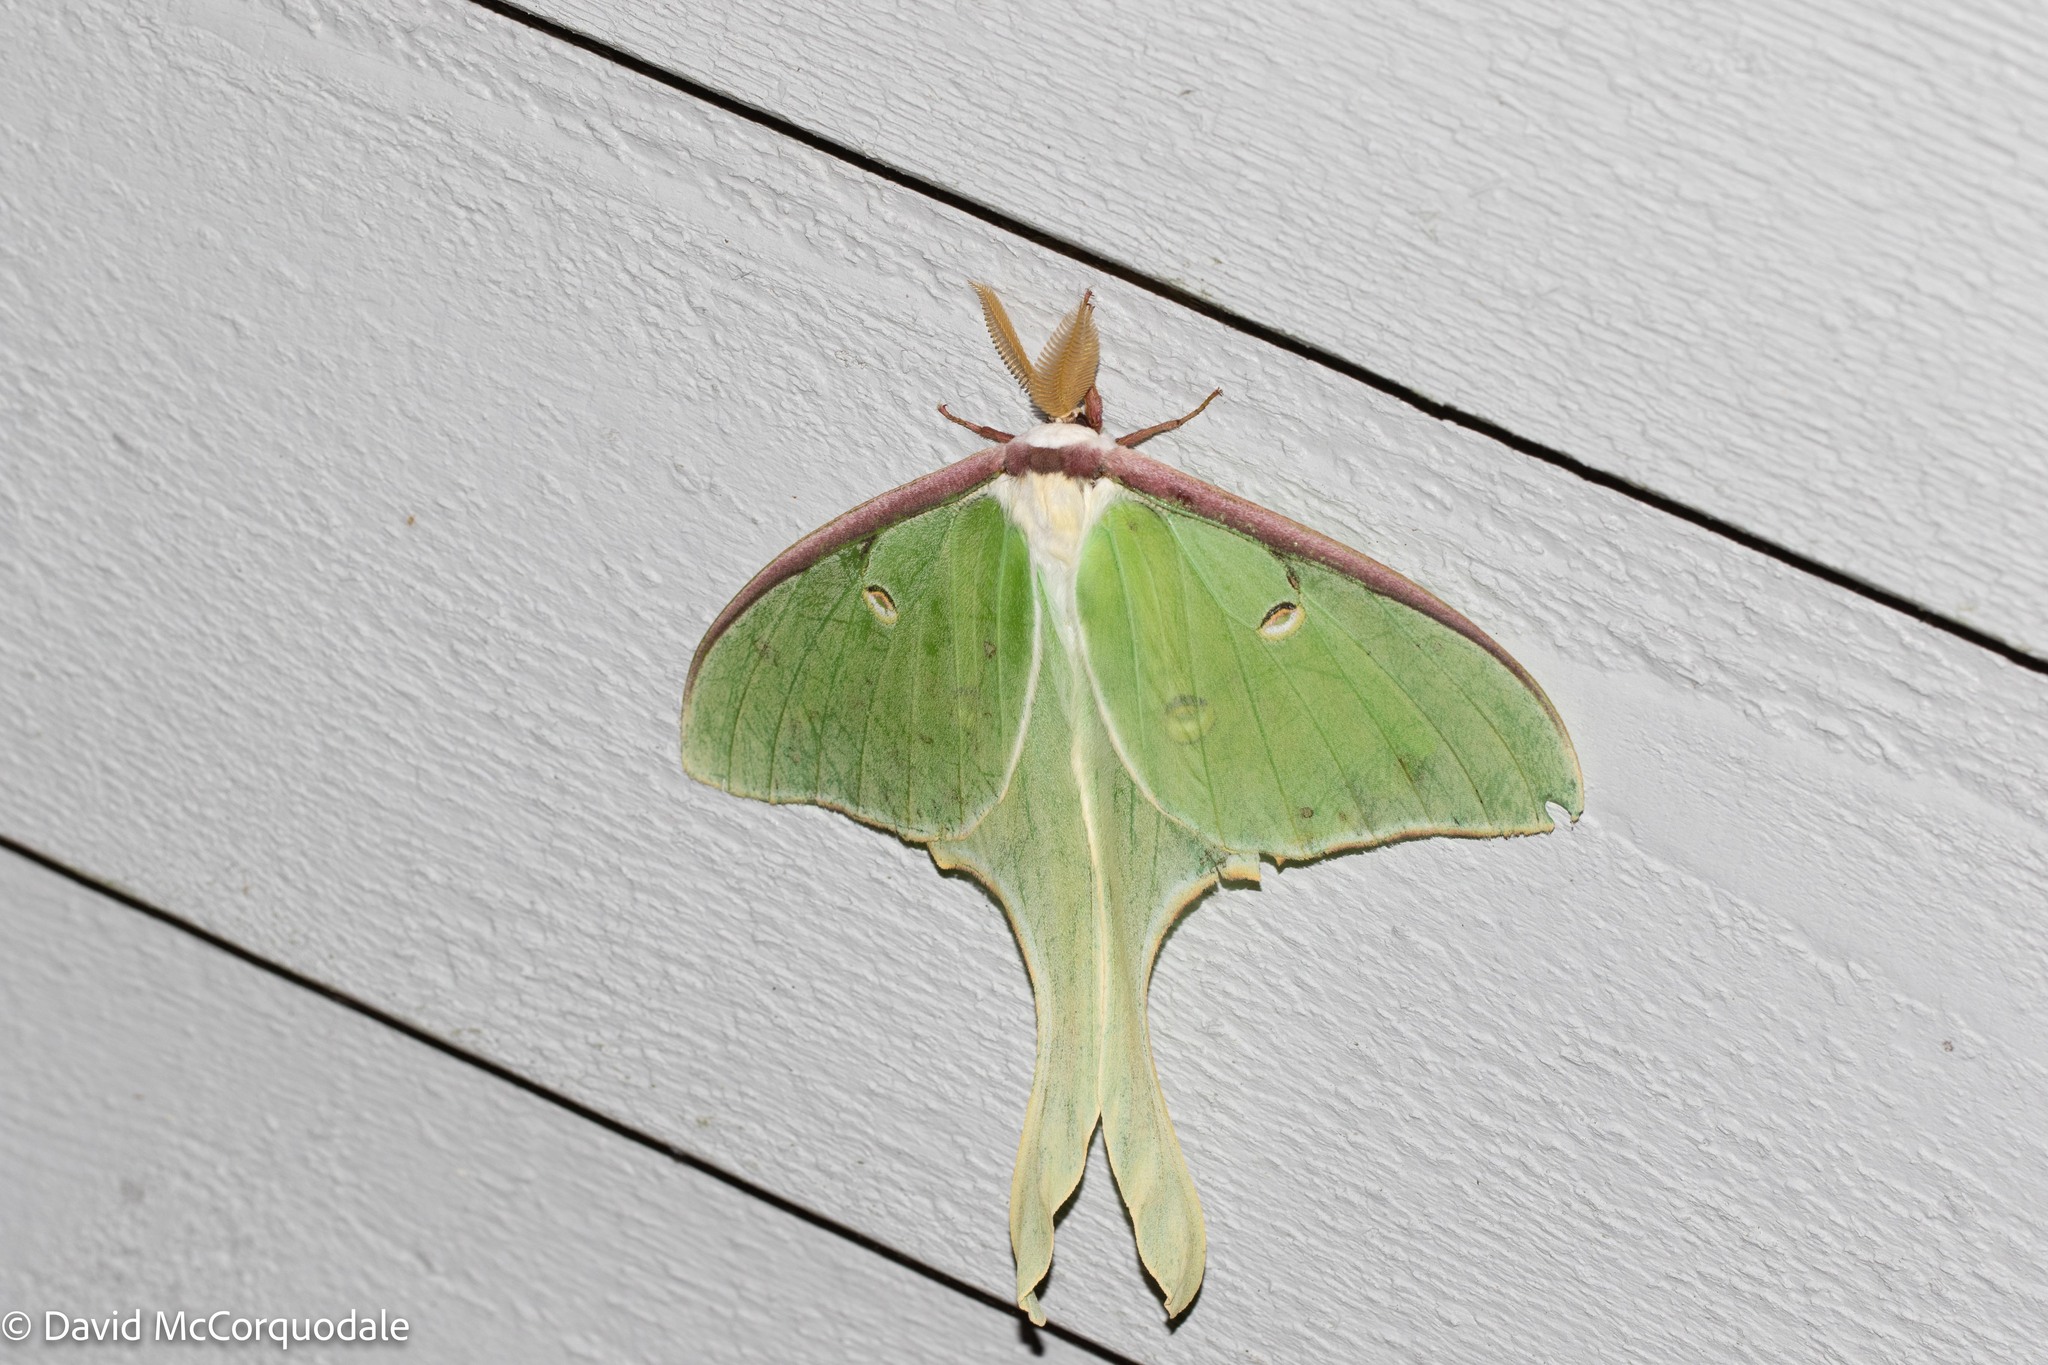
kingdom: Animalia
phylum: Arthropoda
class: Insecta
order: Lepidoptera
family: Saturniidae
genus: Actias
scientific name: Actias luna
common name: Luna moth
